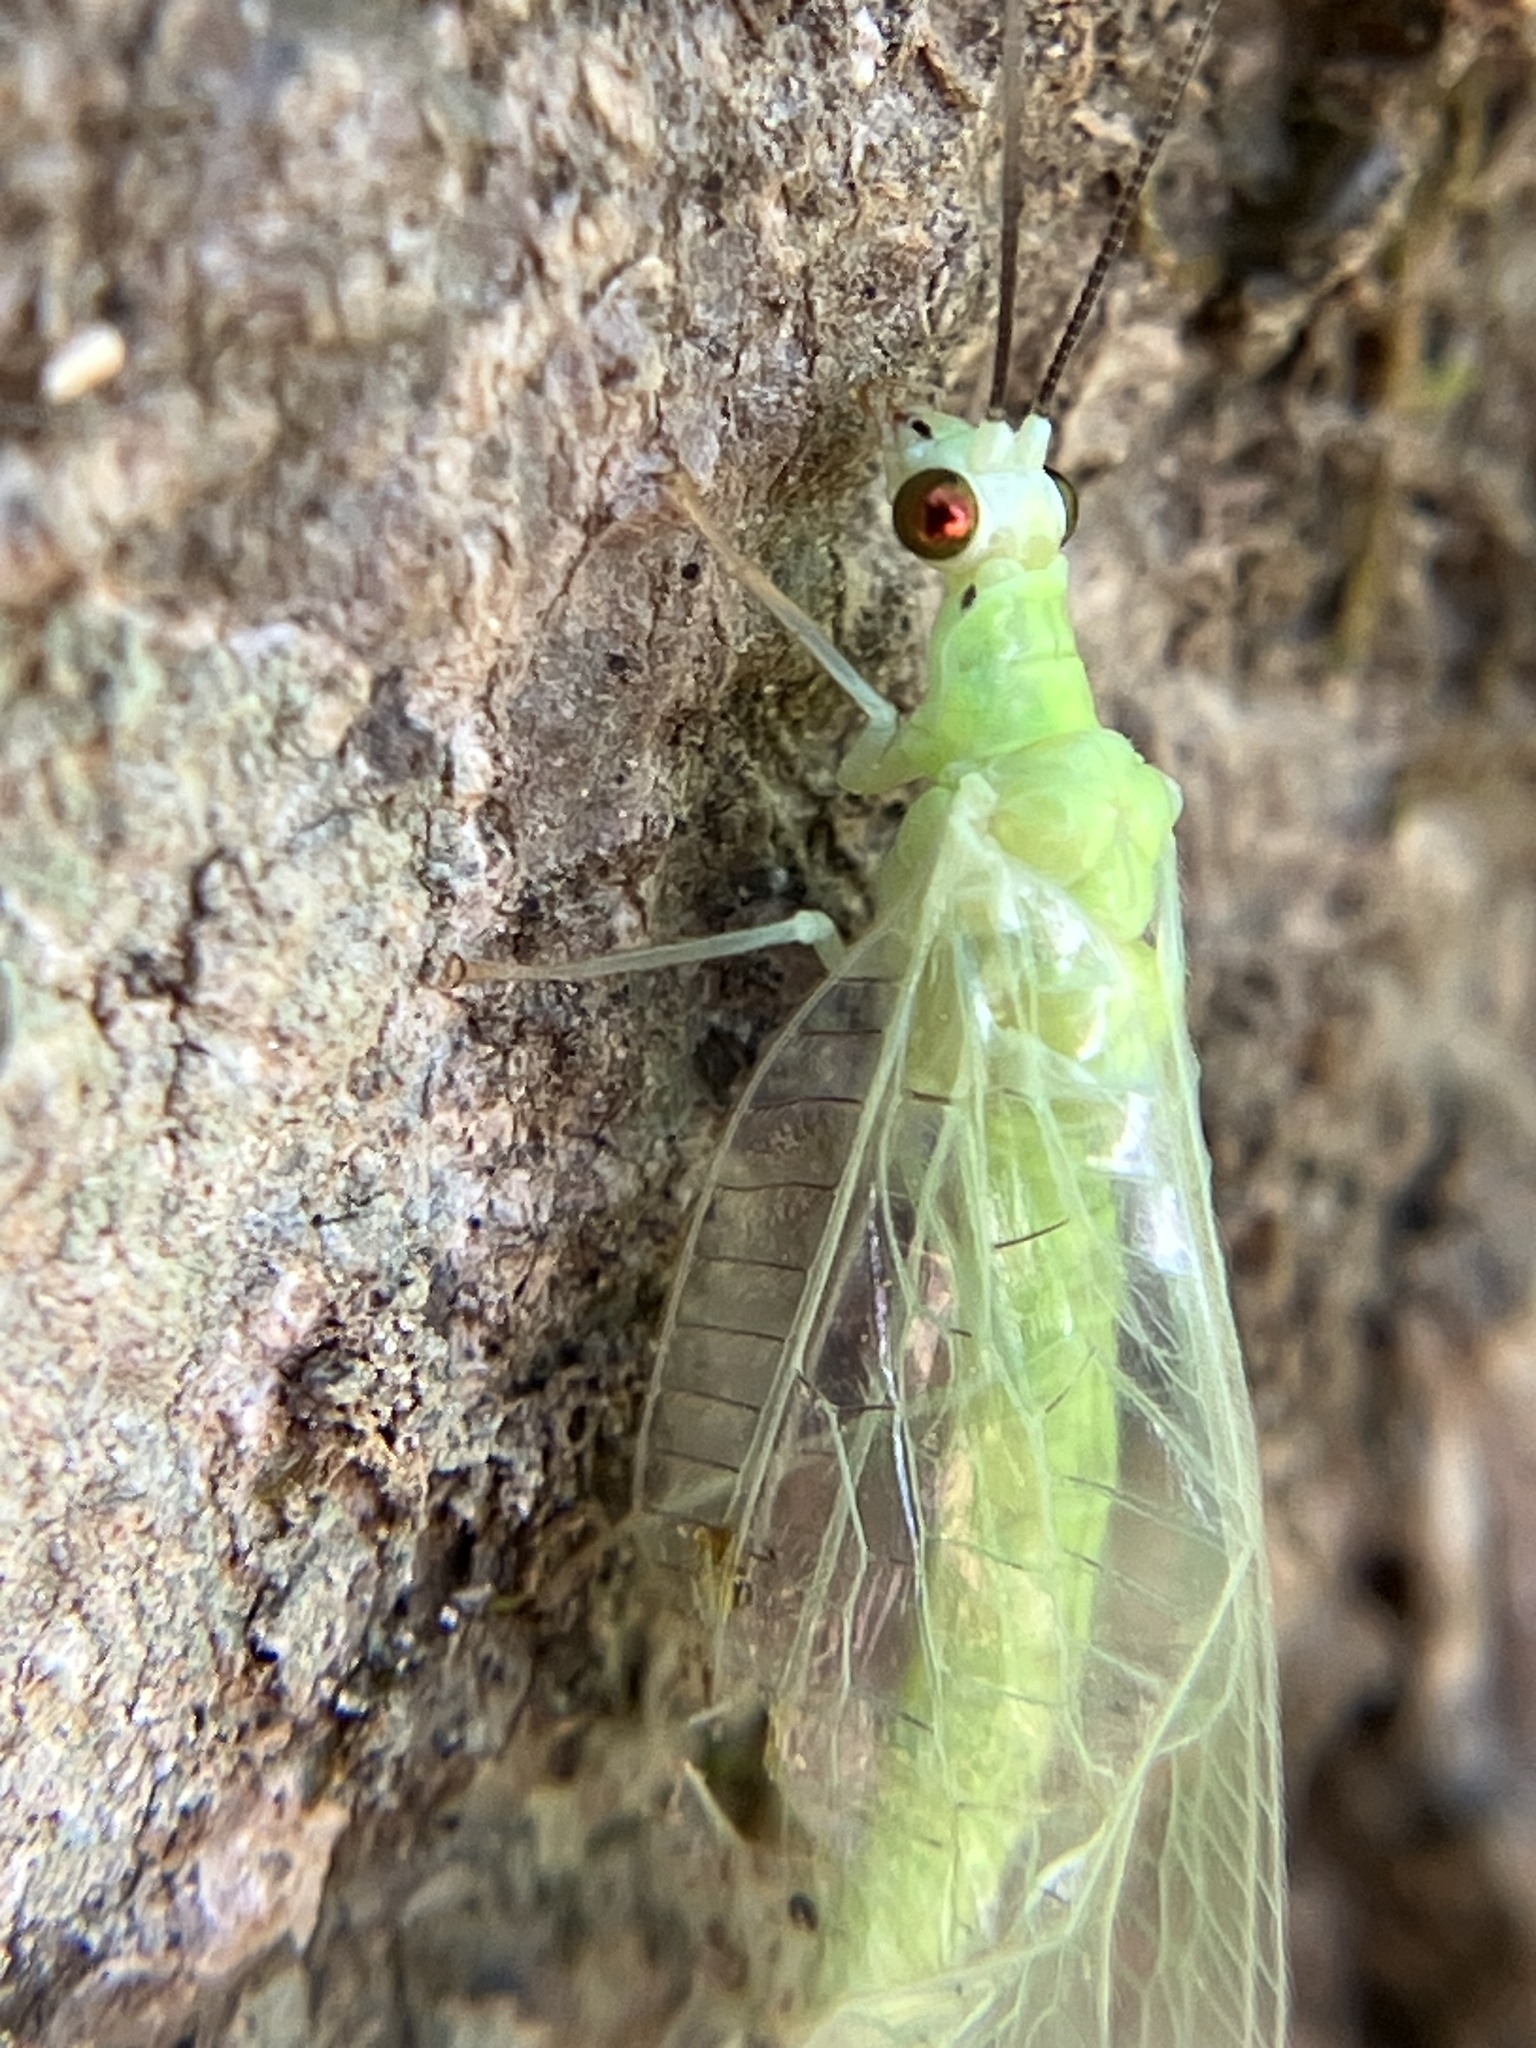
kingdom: Animalia
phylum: Arthropoda
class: Insecta
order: Neuroptera
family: Chrysopidae
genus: Chrysopa
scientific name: Chrysopa nigricornis
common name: Black-horned green lacewing
